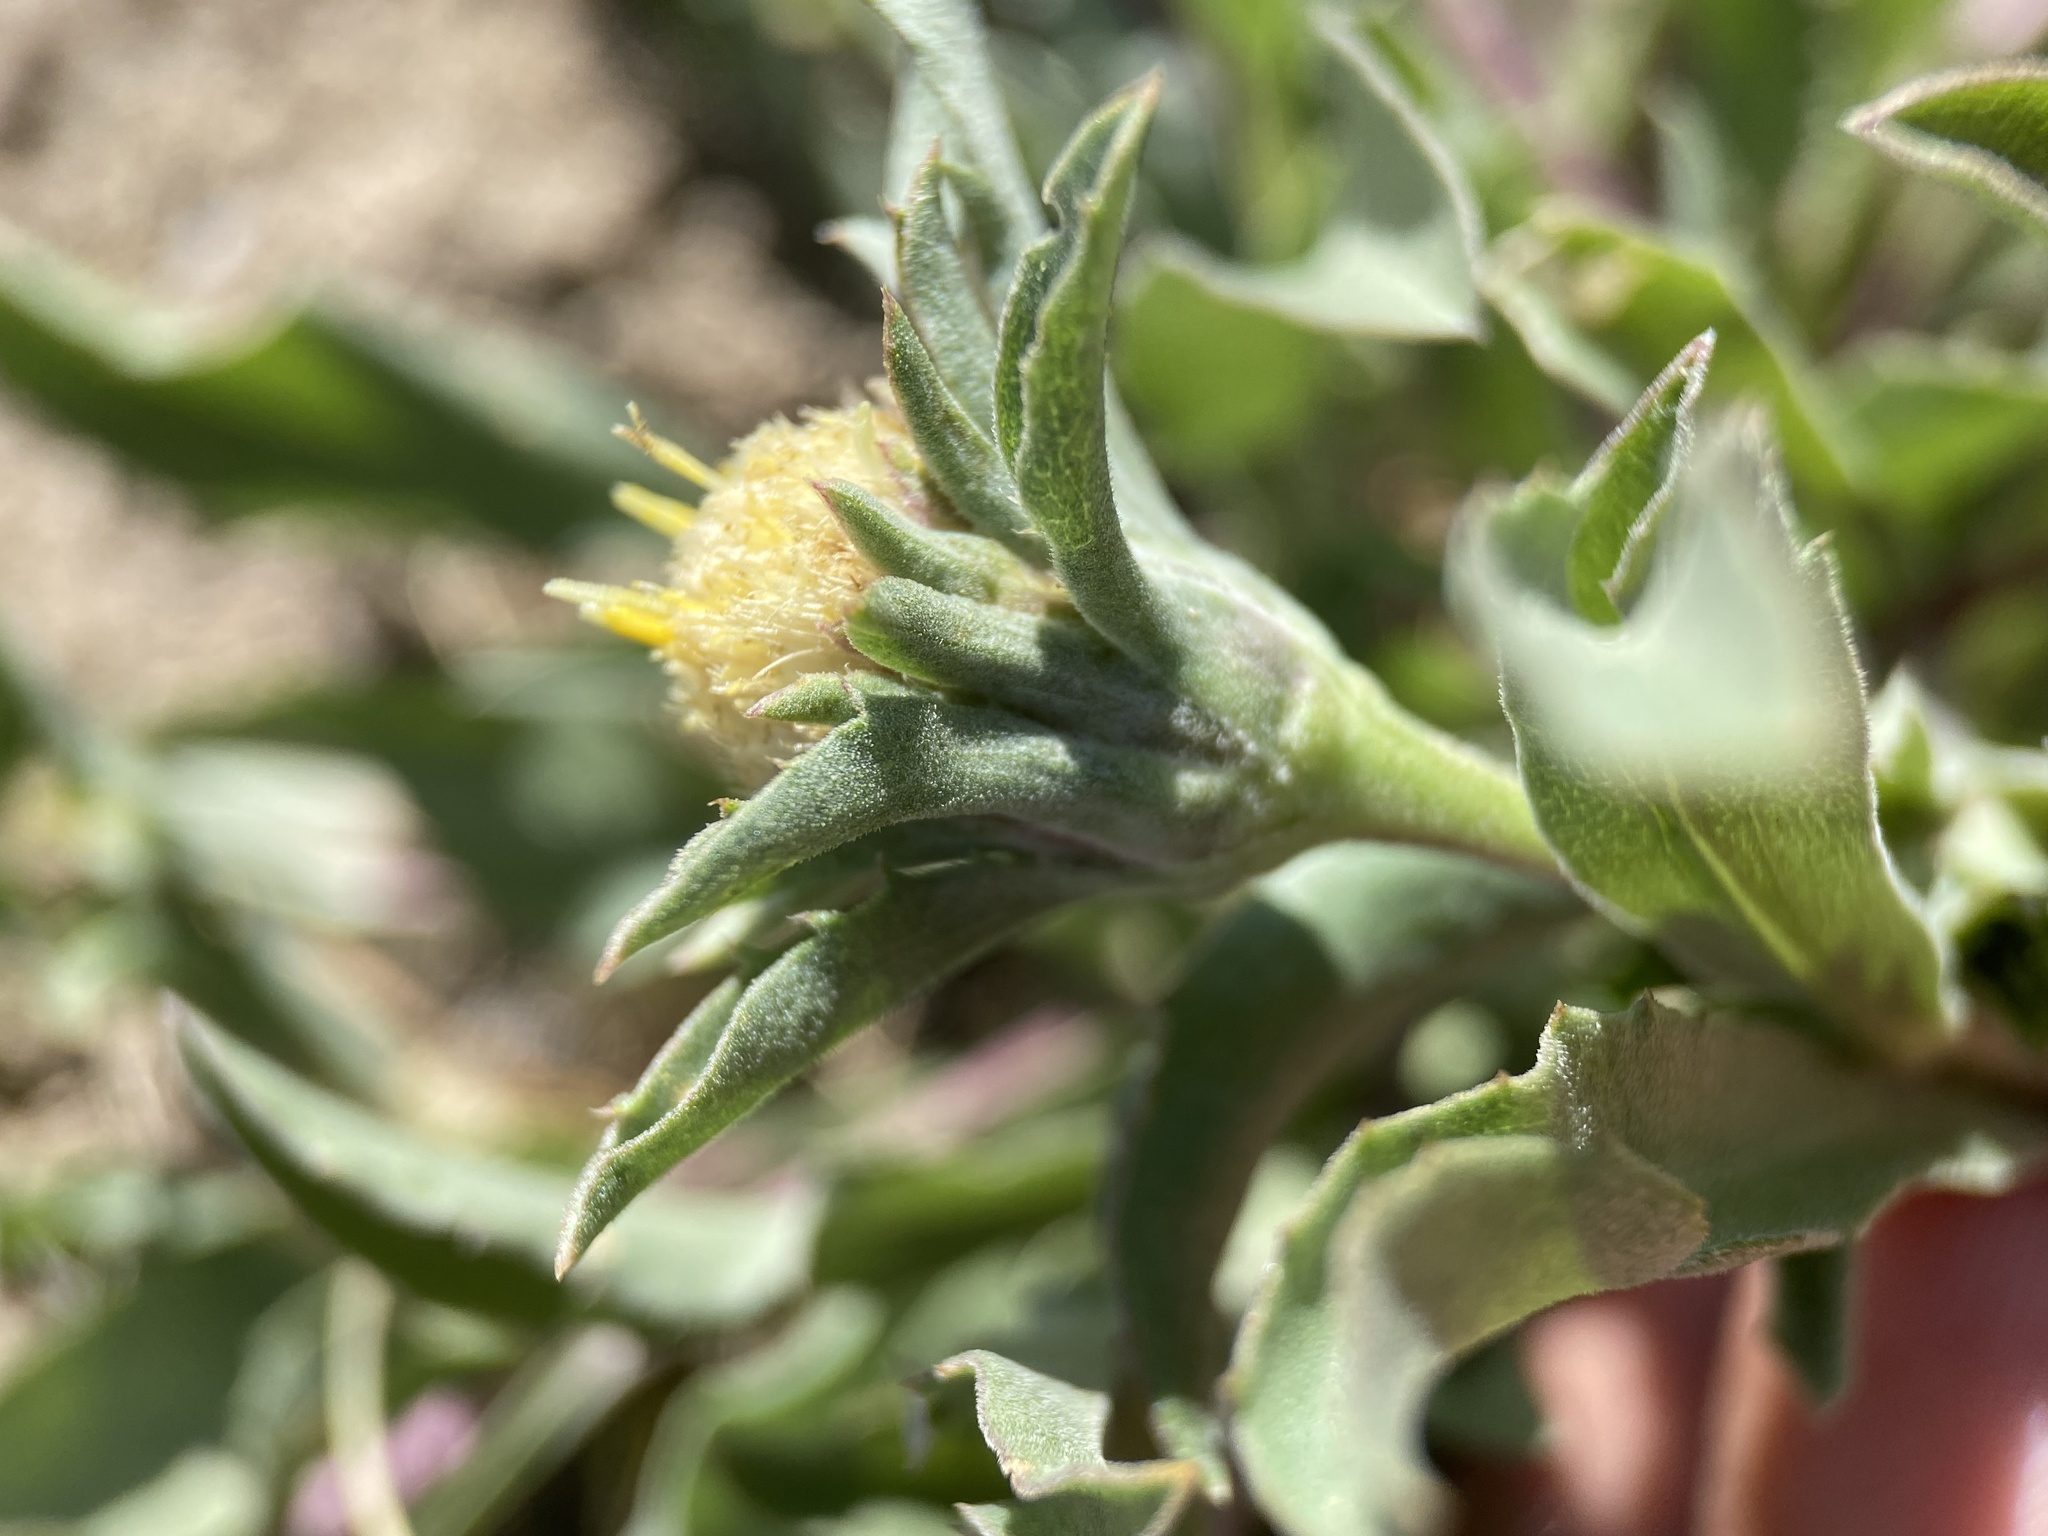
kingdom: Plantae
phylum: Tracheophyta
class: Magnoliopsida
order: Asterales
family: Asteraceae
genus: Pyrrocoma
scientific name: Pyrrocoma carthamoides
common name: Large-flower goldenweed
